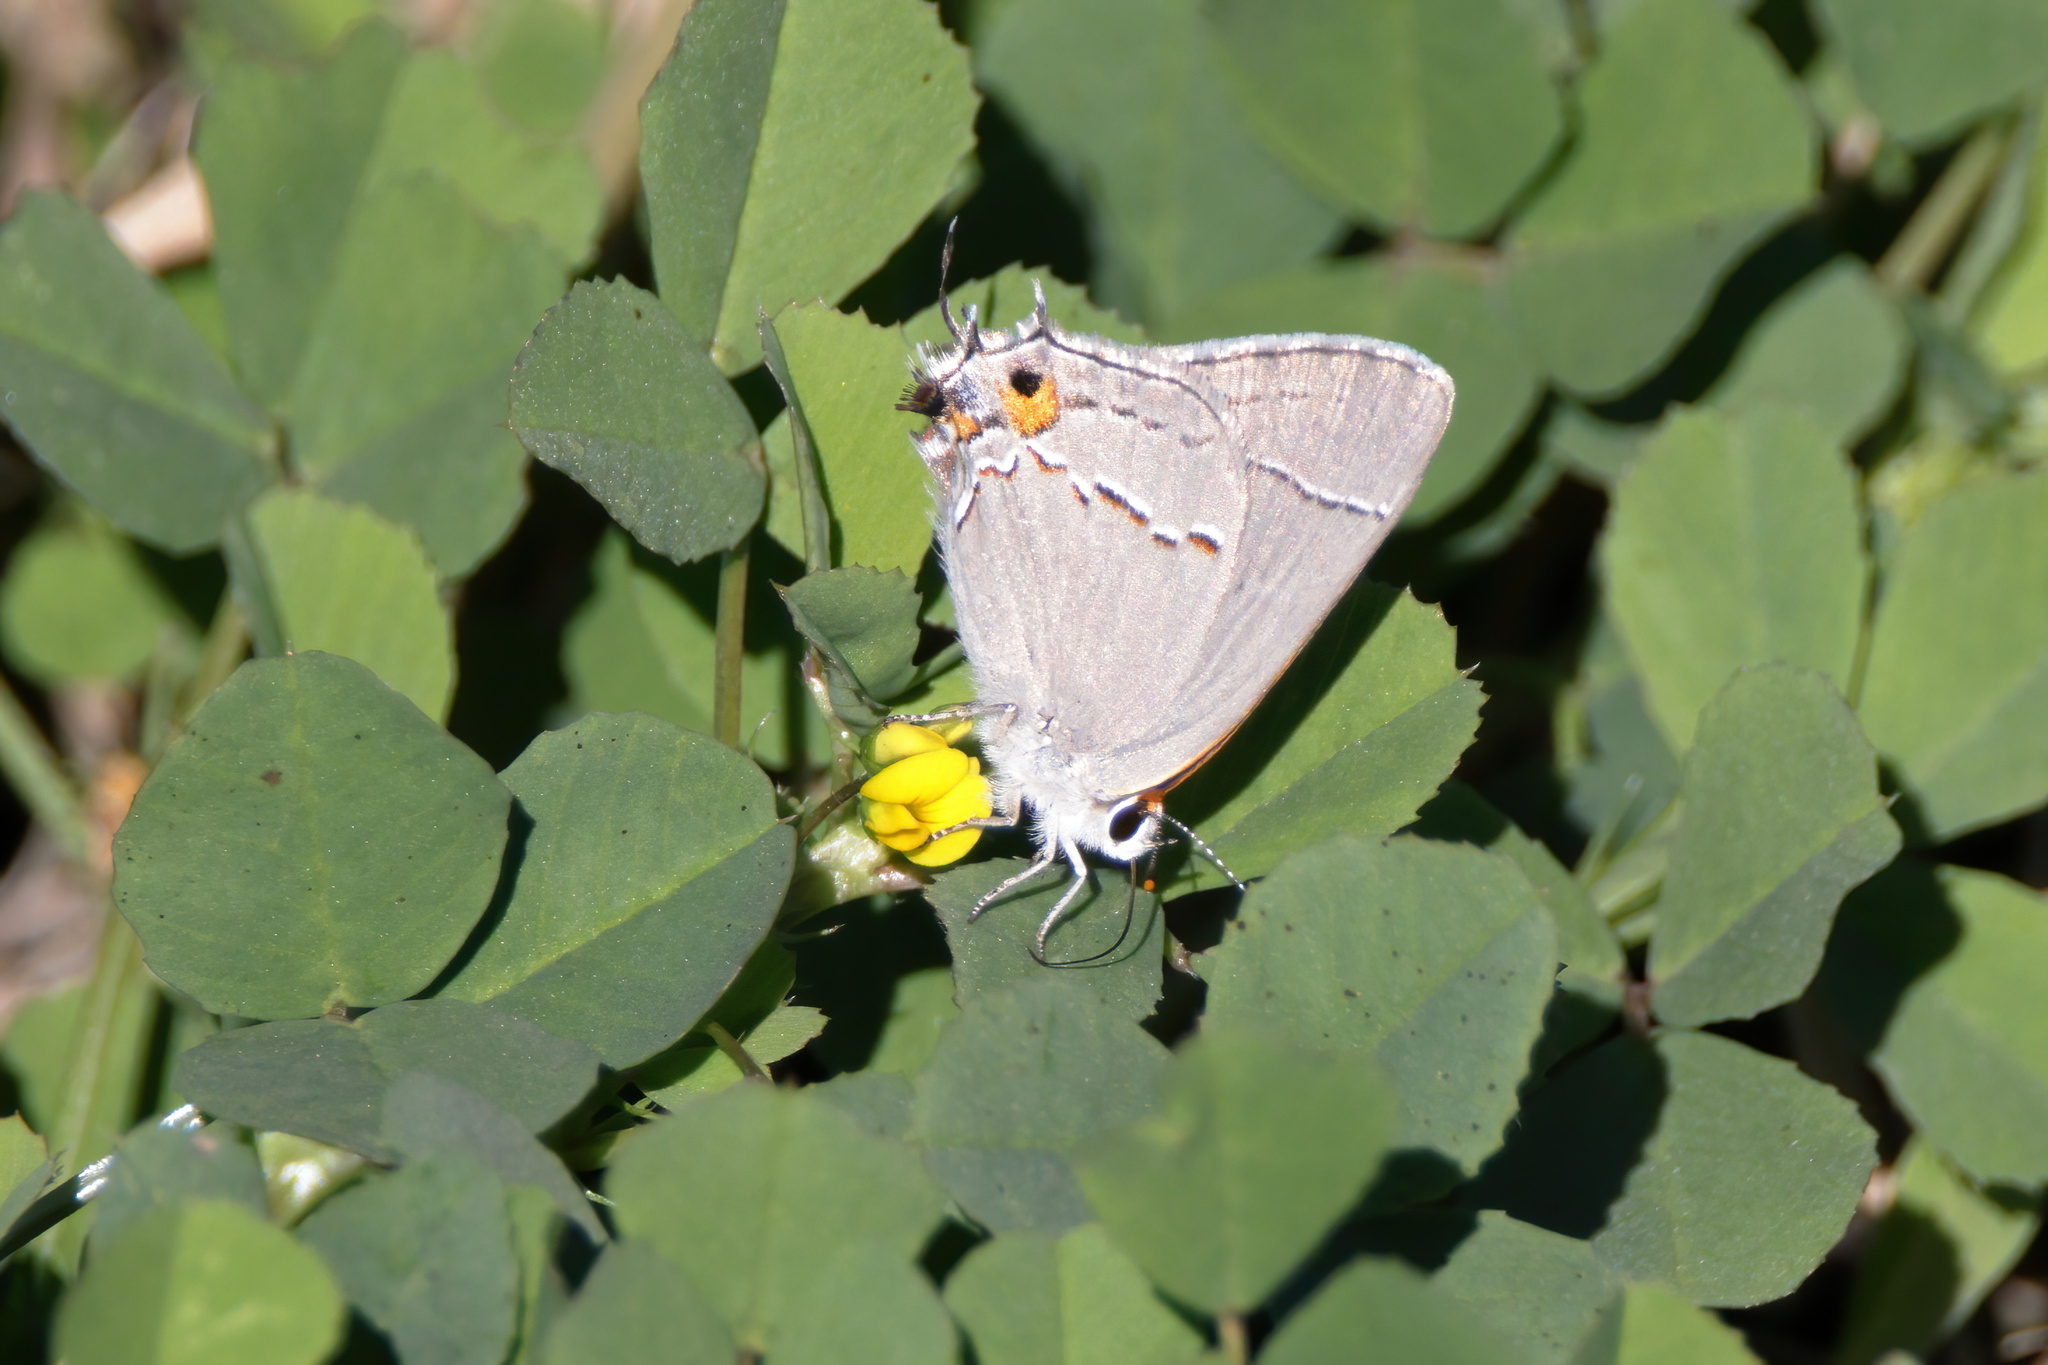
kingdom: Animalia
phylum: Arthropoda
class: Insecta
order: Lepidoptera
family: Lycaenidae
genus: Strymon
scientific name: Strymon melinus
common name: Gray hairstreak
